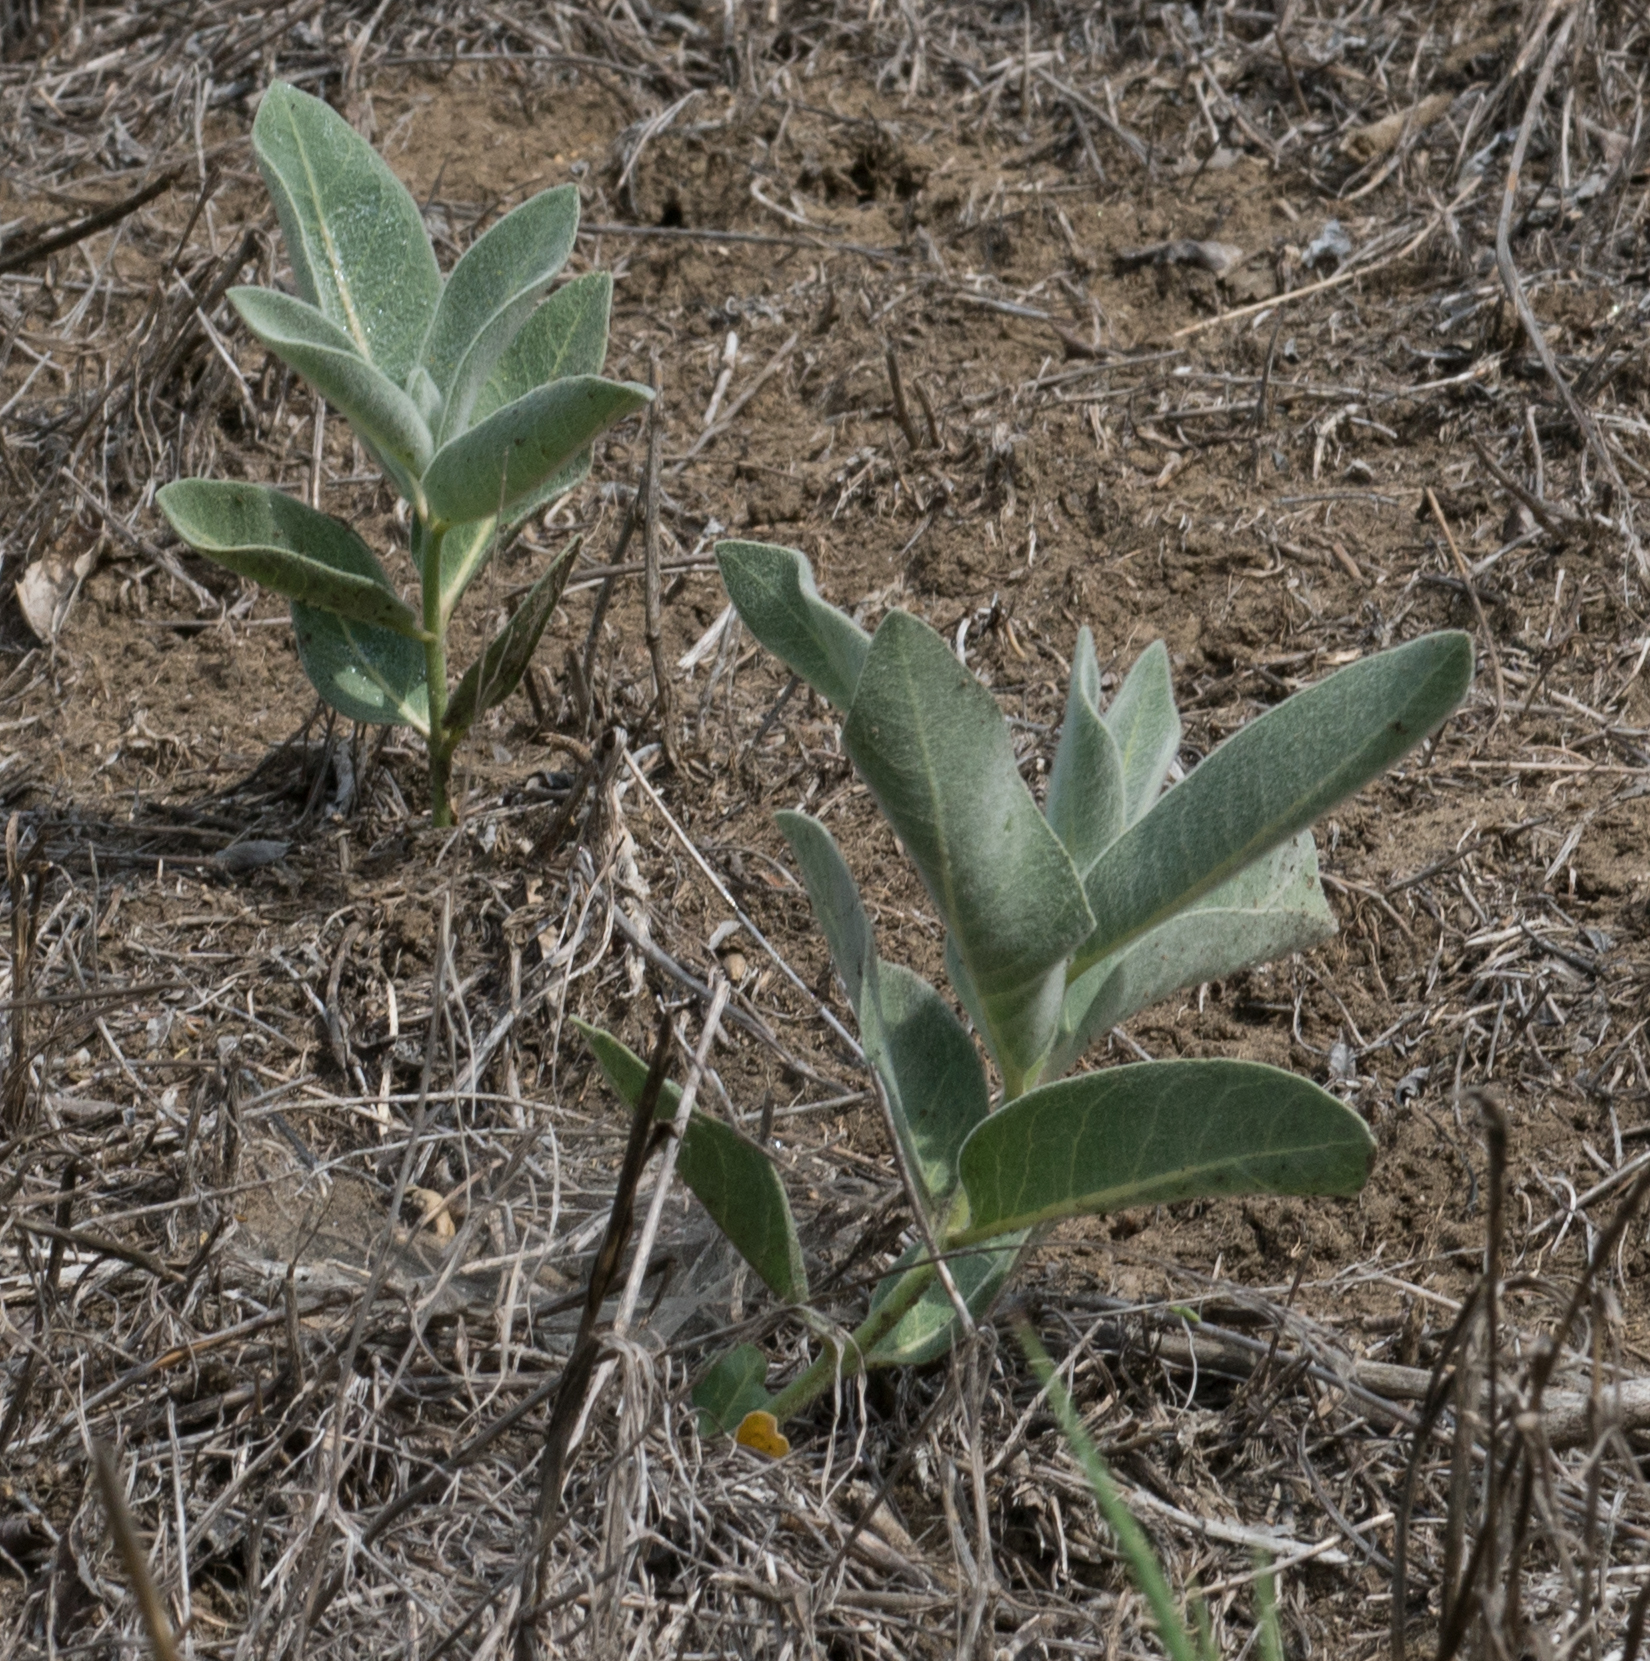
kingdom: Plantae
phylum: Tracheophyta
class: Magnoliopsida
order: Gentianales
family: Apocynaceae
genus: Asclepias
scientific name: Asclepias eriocarpa
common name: Indian milkweed
